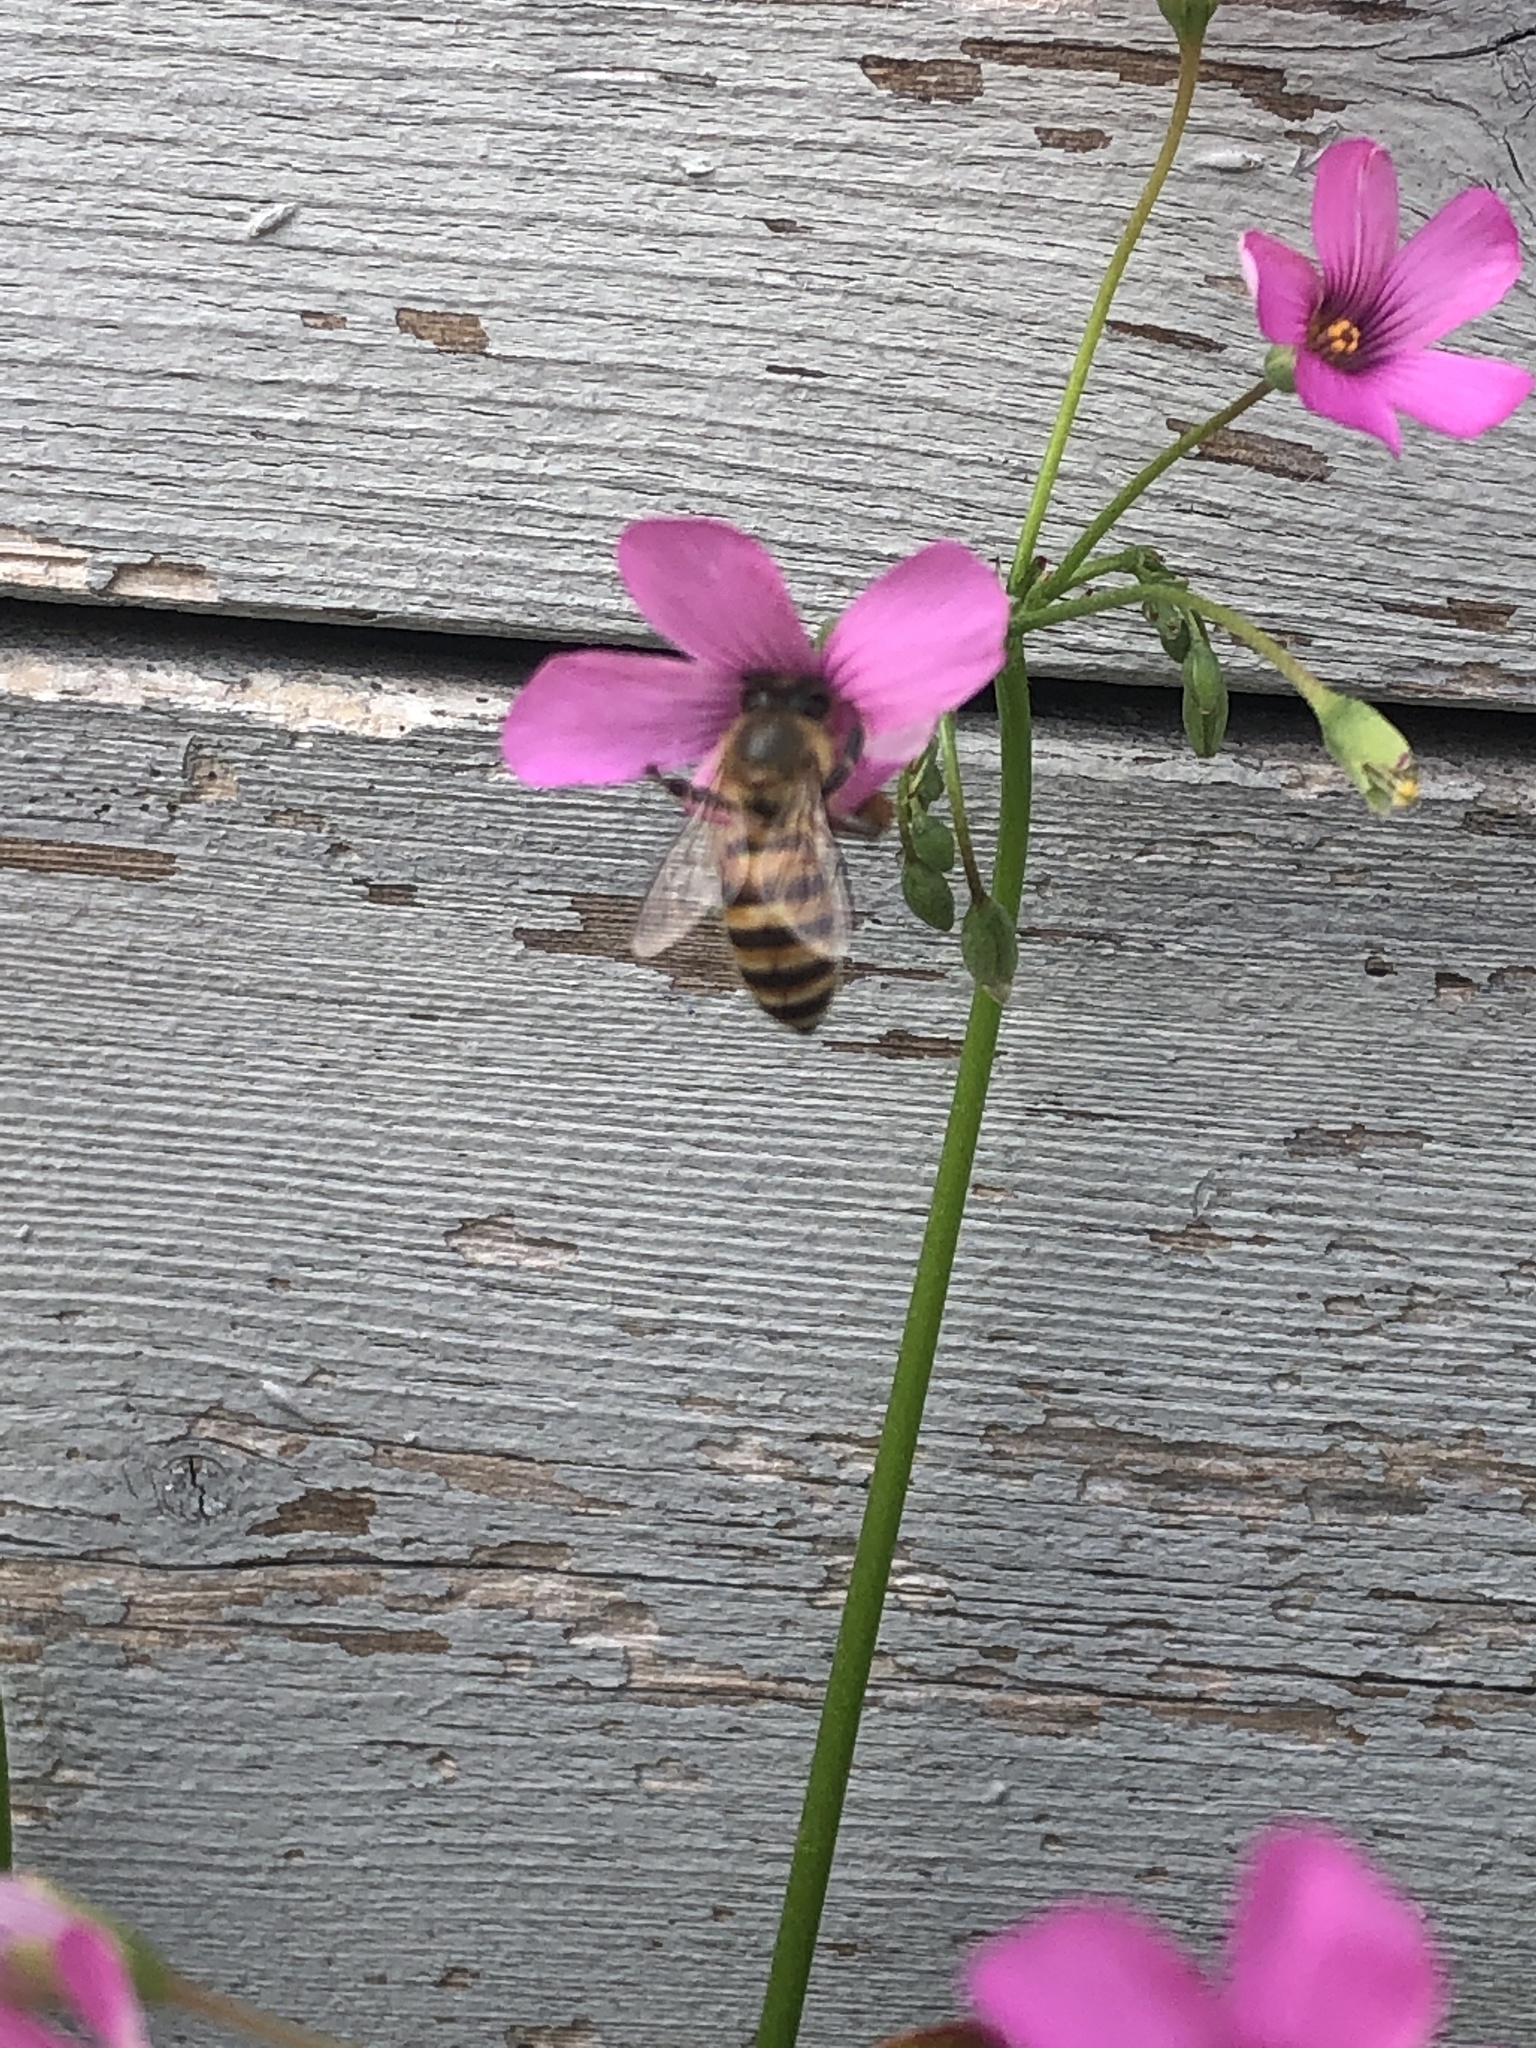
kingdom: Animalia
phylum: Arthropoda
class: Insecta
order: Hymenoptera
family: Apidae
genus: Apis
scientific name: Apis cerana
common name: Honey bee
